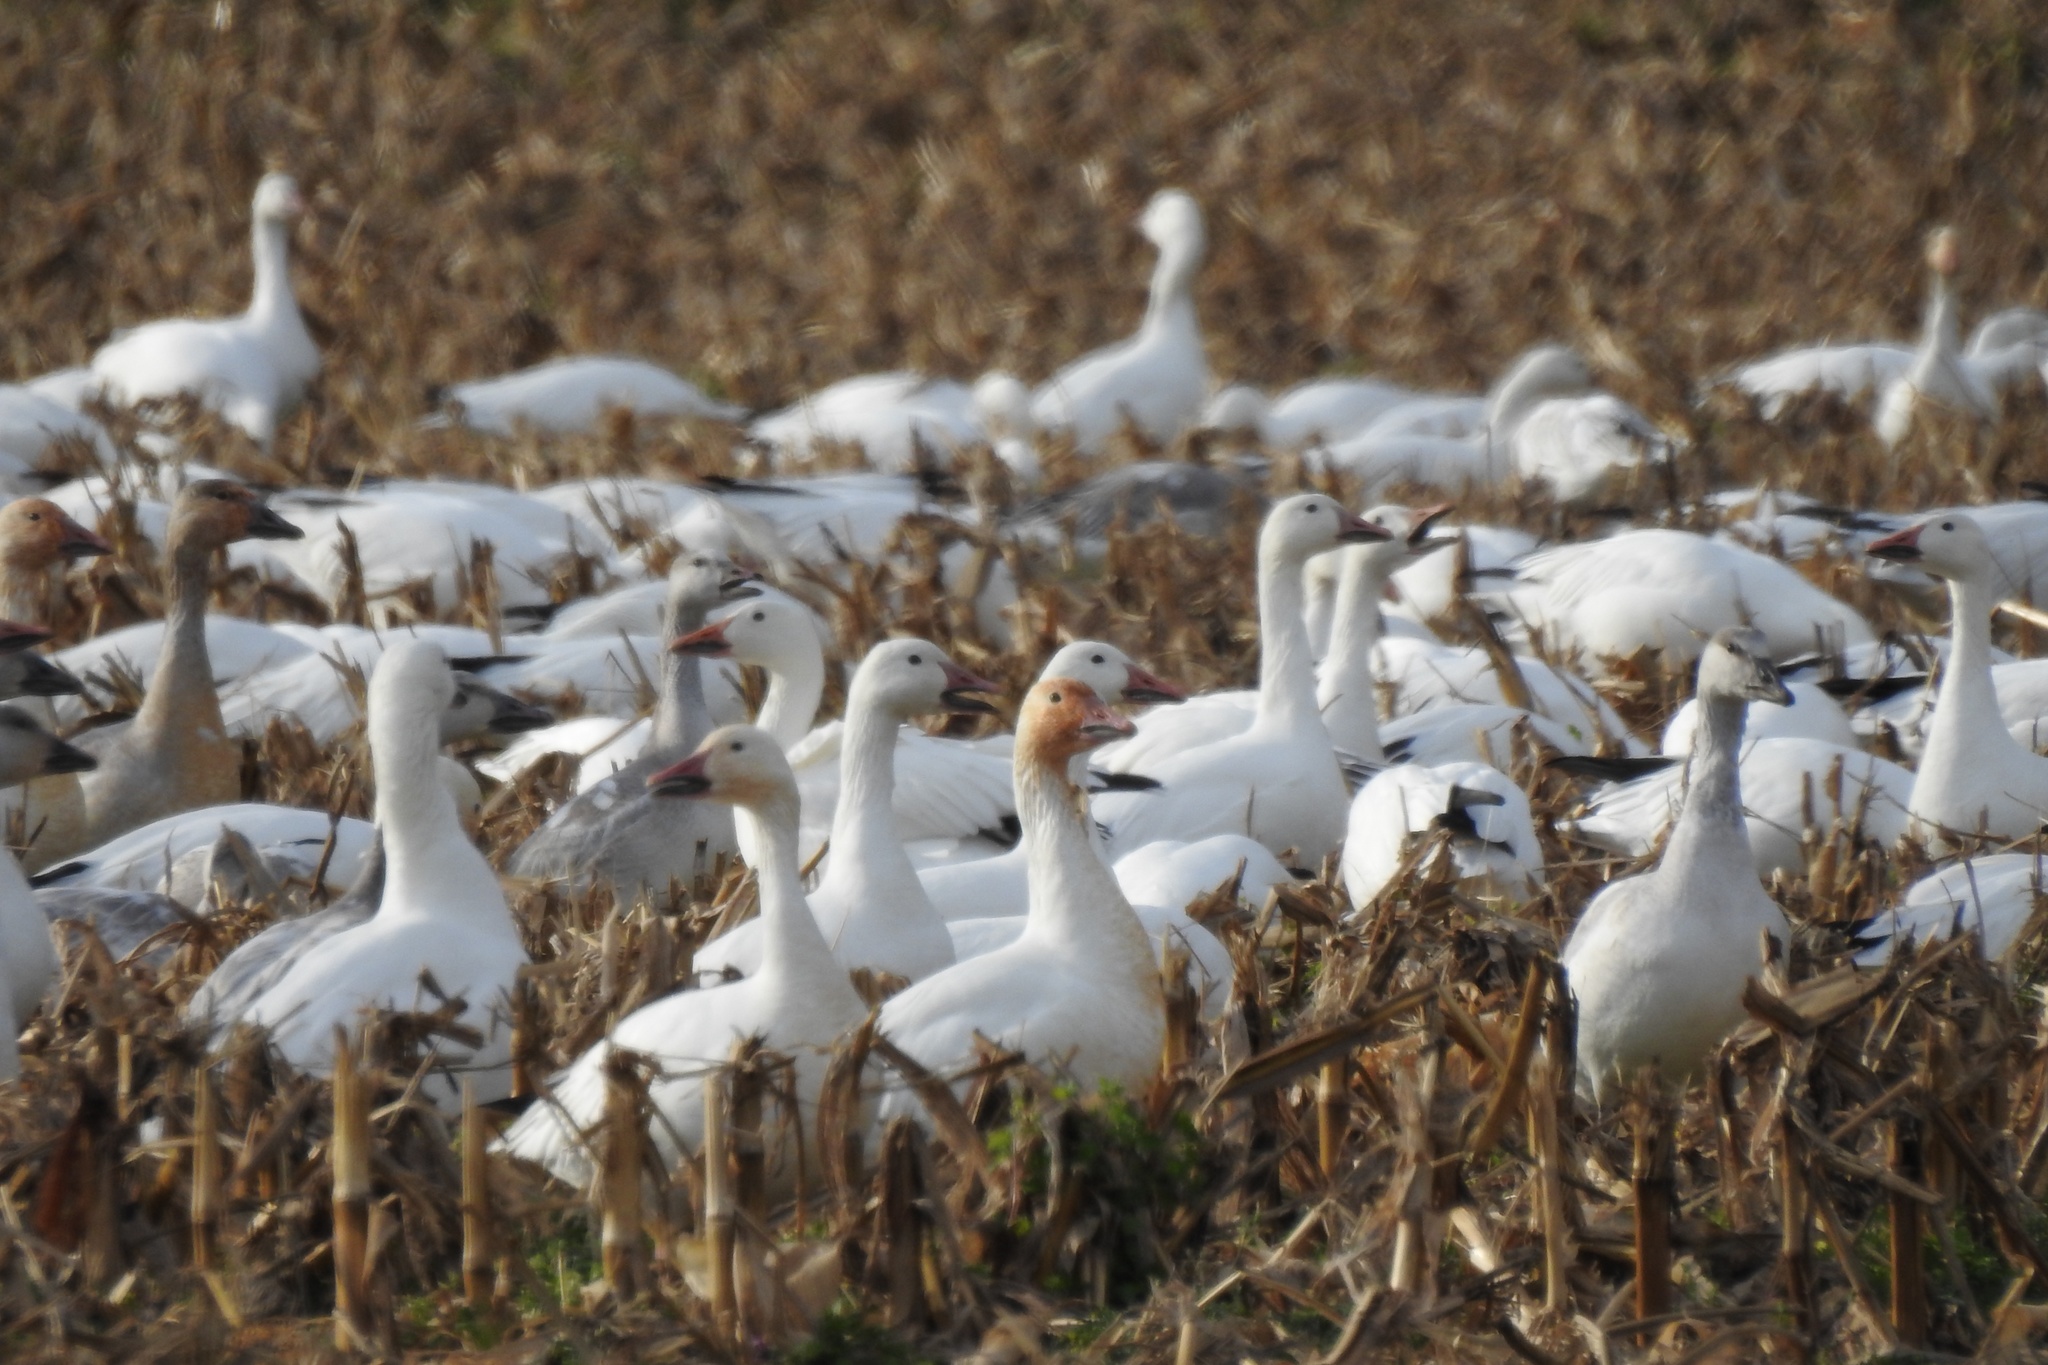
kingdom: Animalia
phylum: Chordata
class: Aves
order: Anseriformes
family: Anatidae
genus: Anser
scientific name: Anser caerulescens
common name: Snow goose
